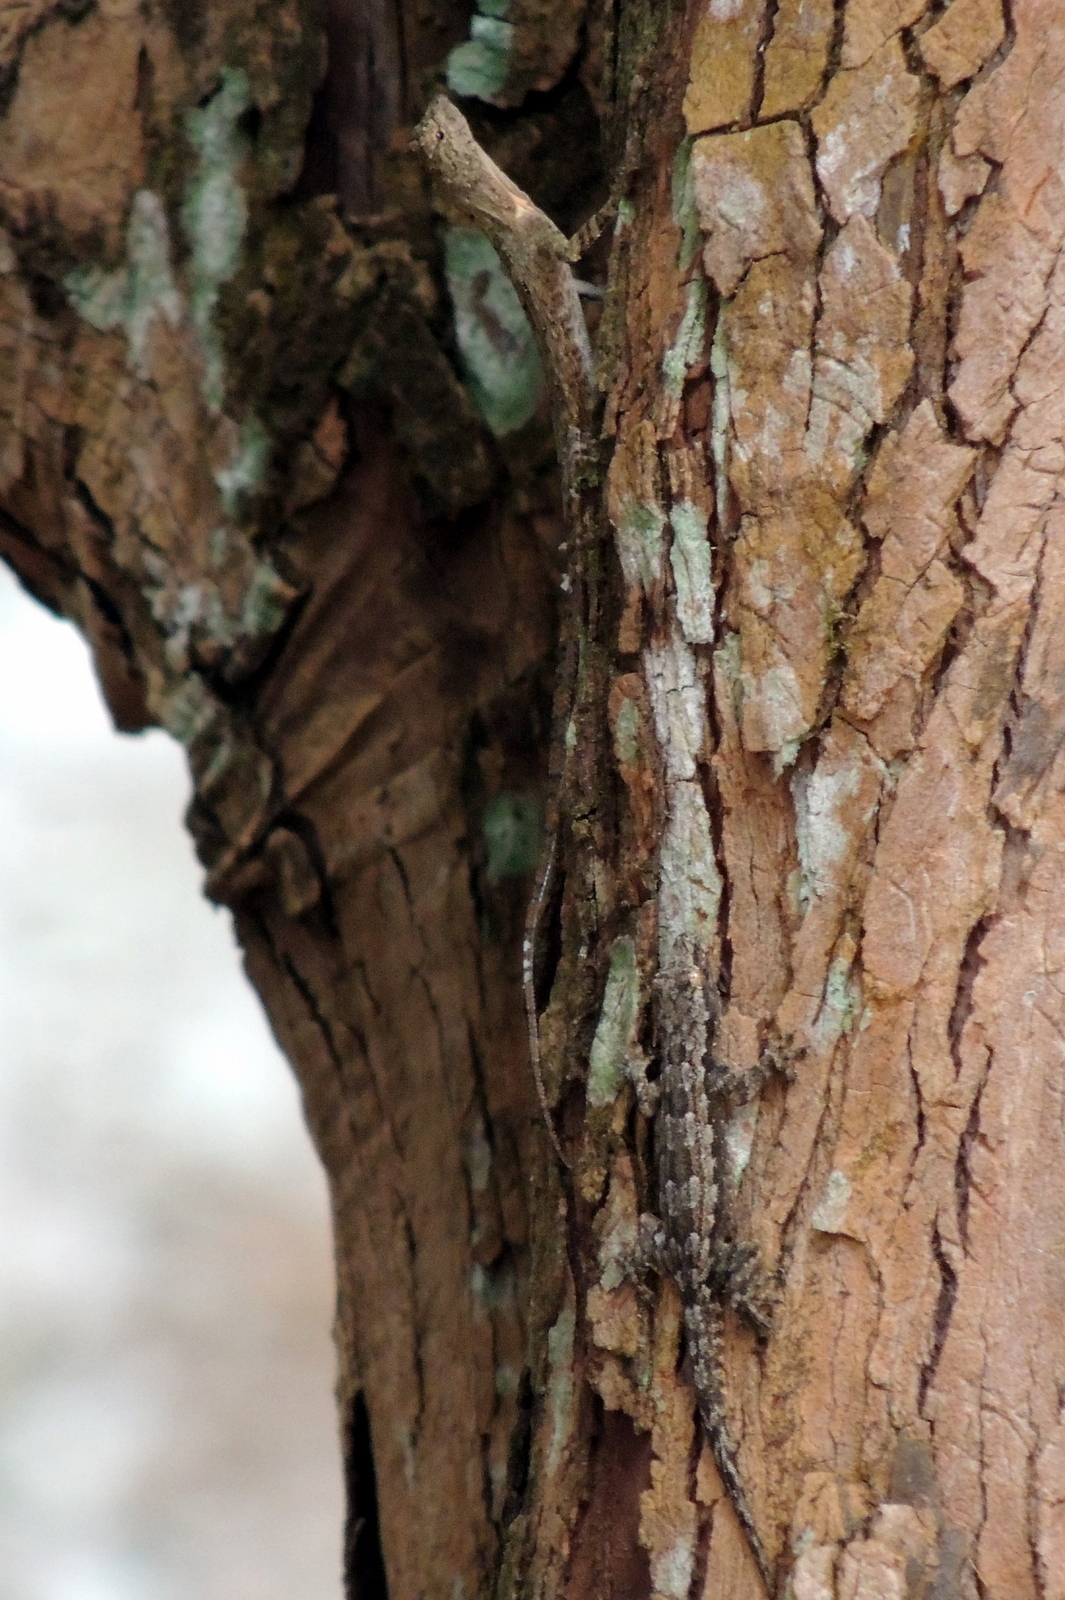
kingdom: Animalia
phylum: Chordata
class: Squamata
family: Agamidae
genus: Draco
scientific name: Draco maculatus
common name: Spotted flying dragon
